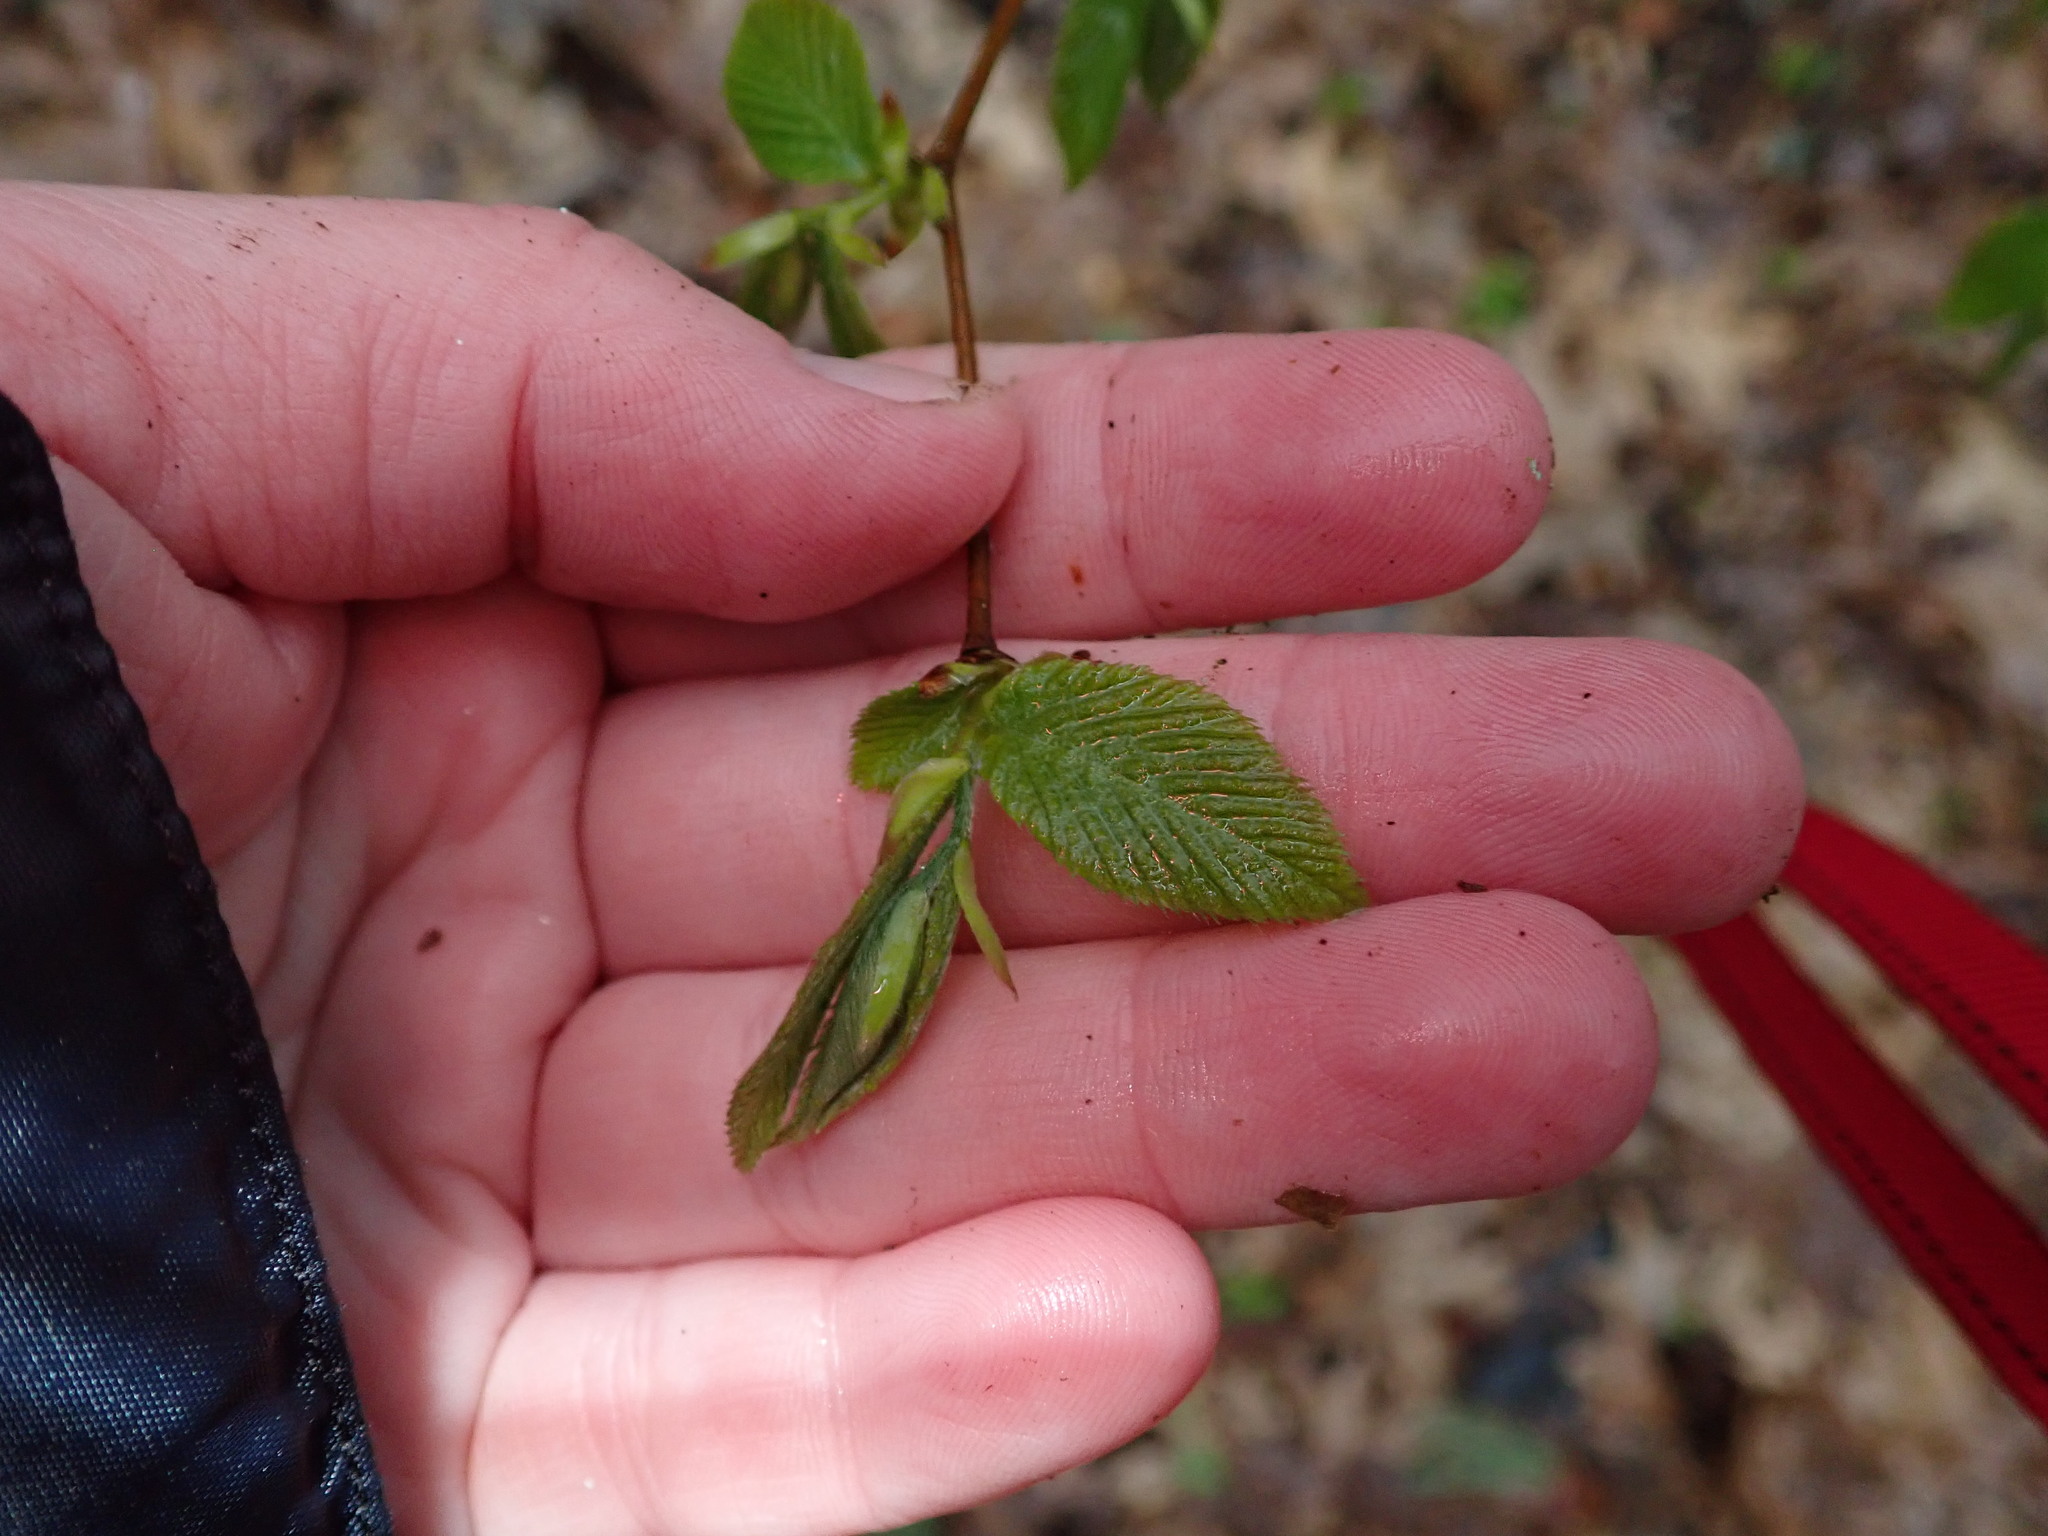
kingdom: Plantae
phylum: Tracheophyta
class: Magnoliopsida
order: Fagales
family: Fagaceae
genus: Fagus
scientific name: Fagus grandifolia
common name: American beech
